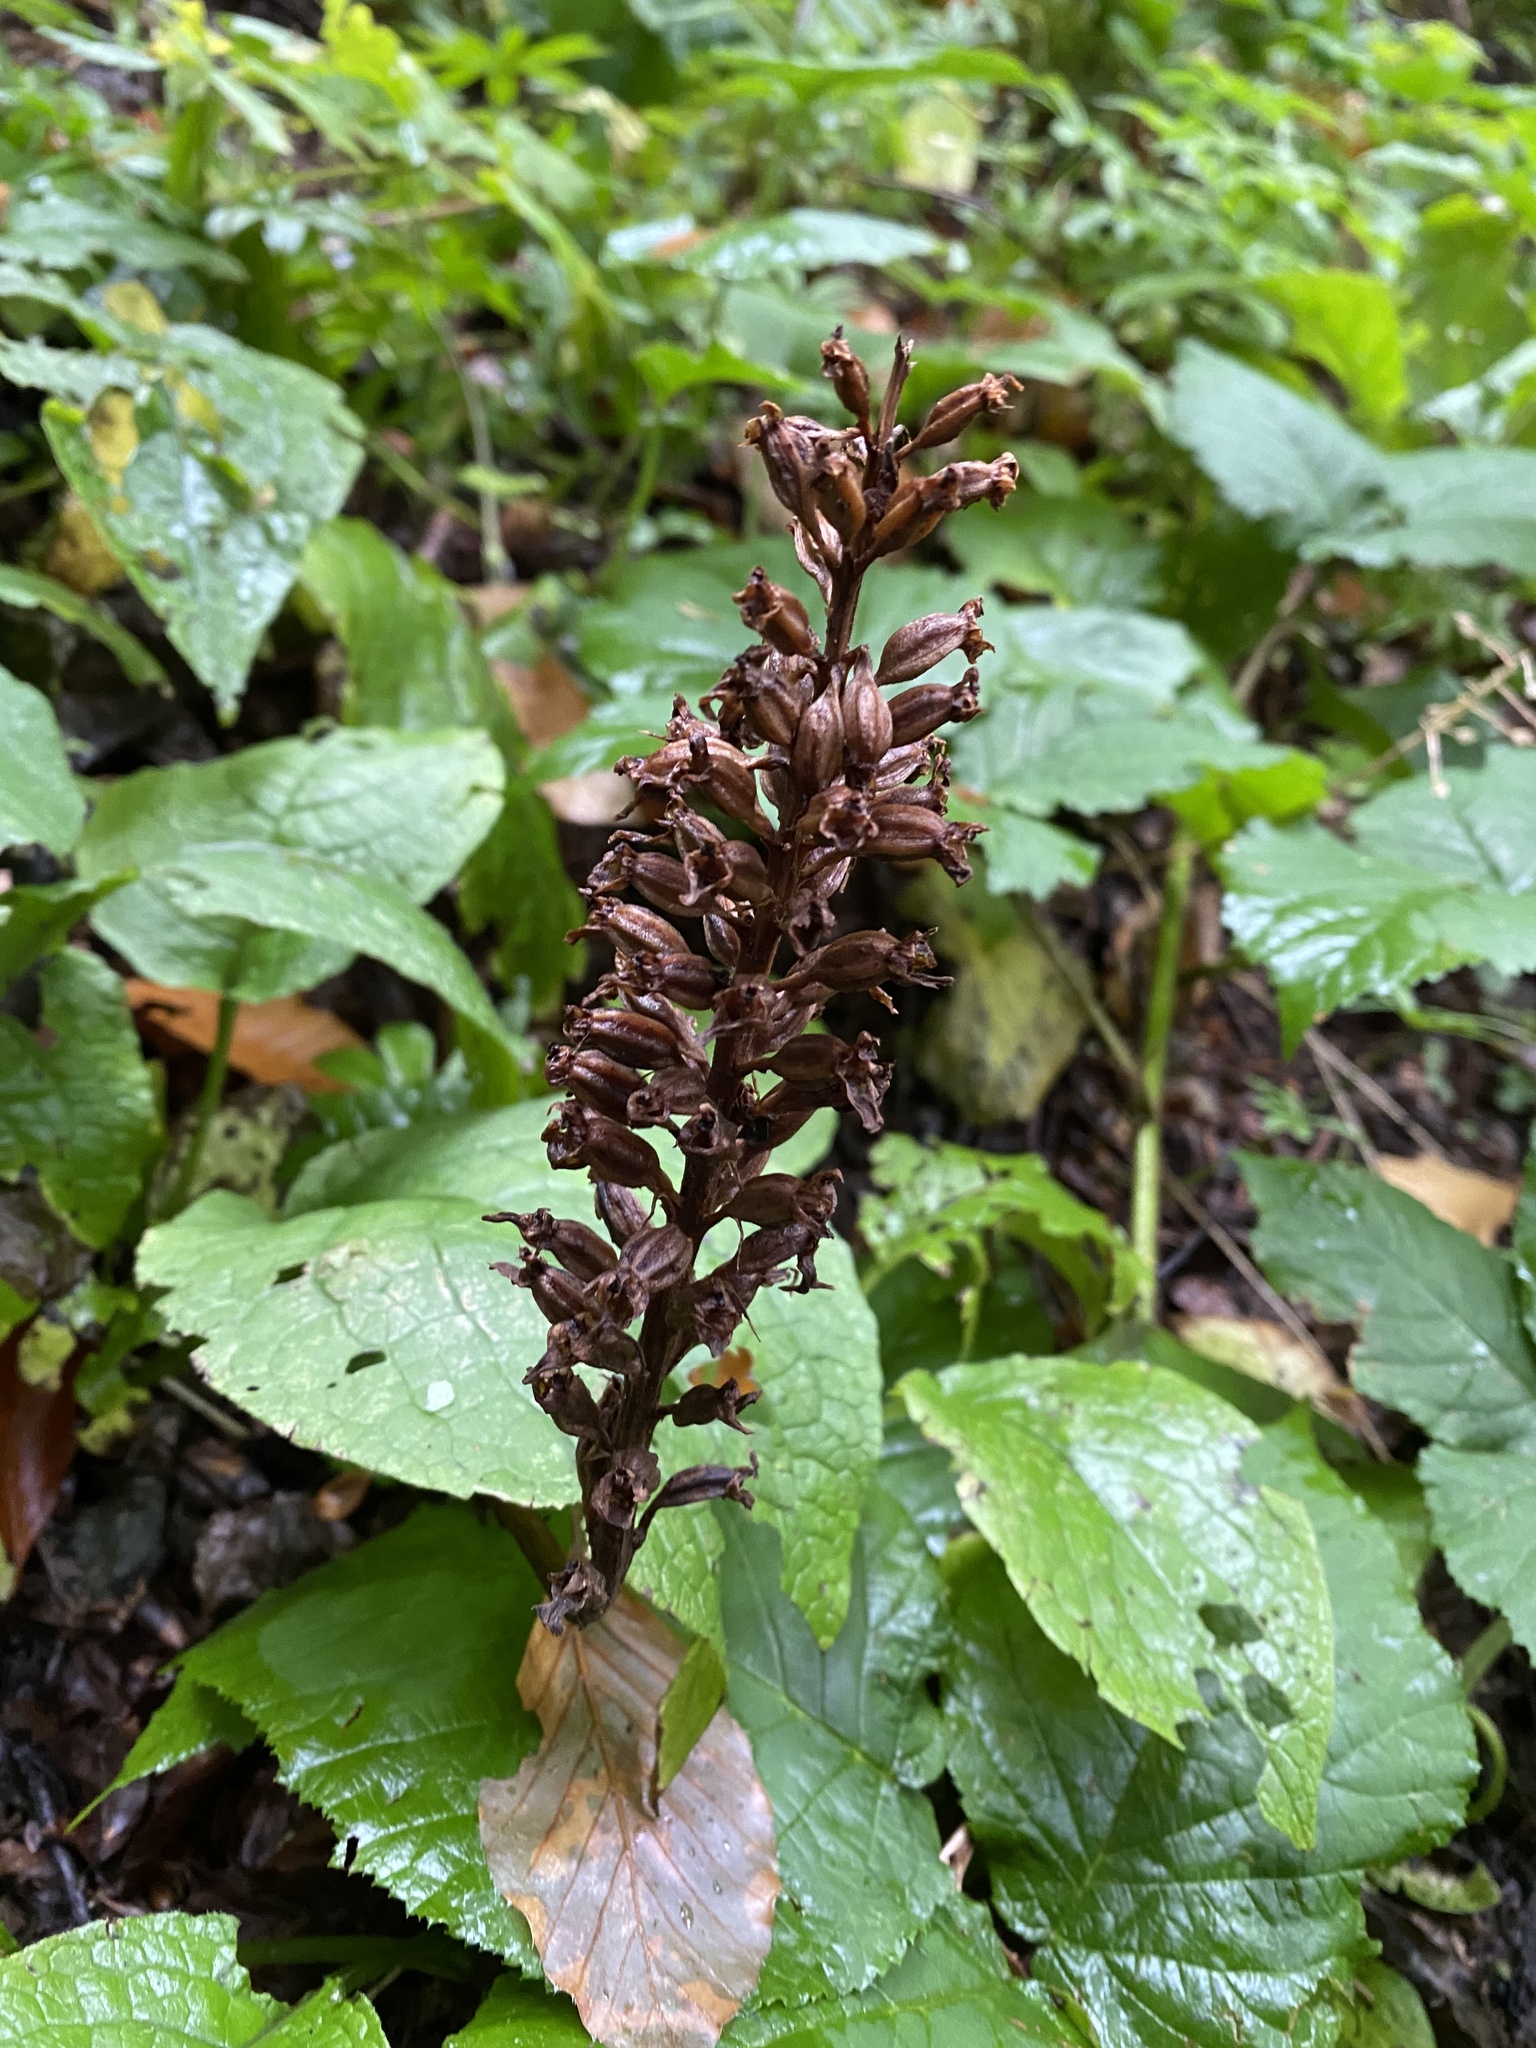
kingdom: Plantae
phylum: Tracheophyta
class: Liliopsida
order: Asparagales
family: Orchidaceae
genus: Neottia
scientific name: Neottia nidus-avis
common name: Bird's-nest orchid
